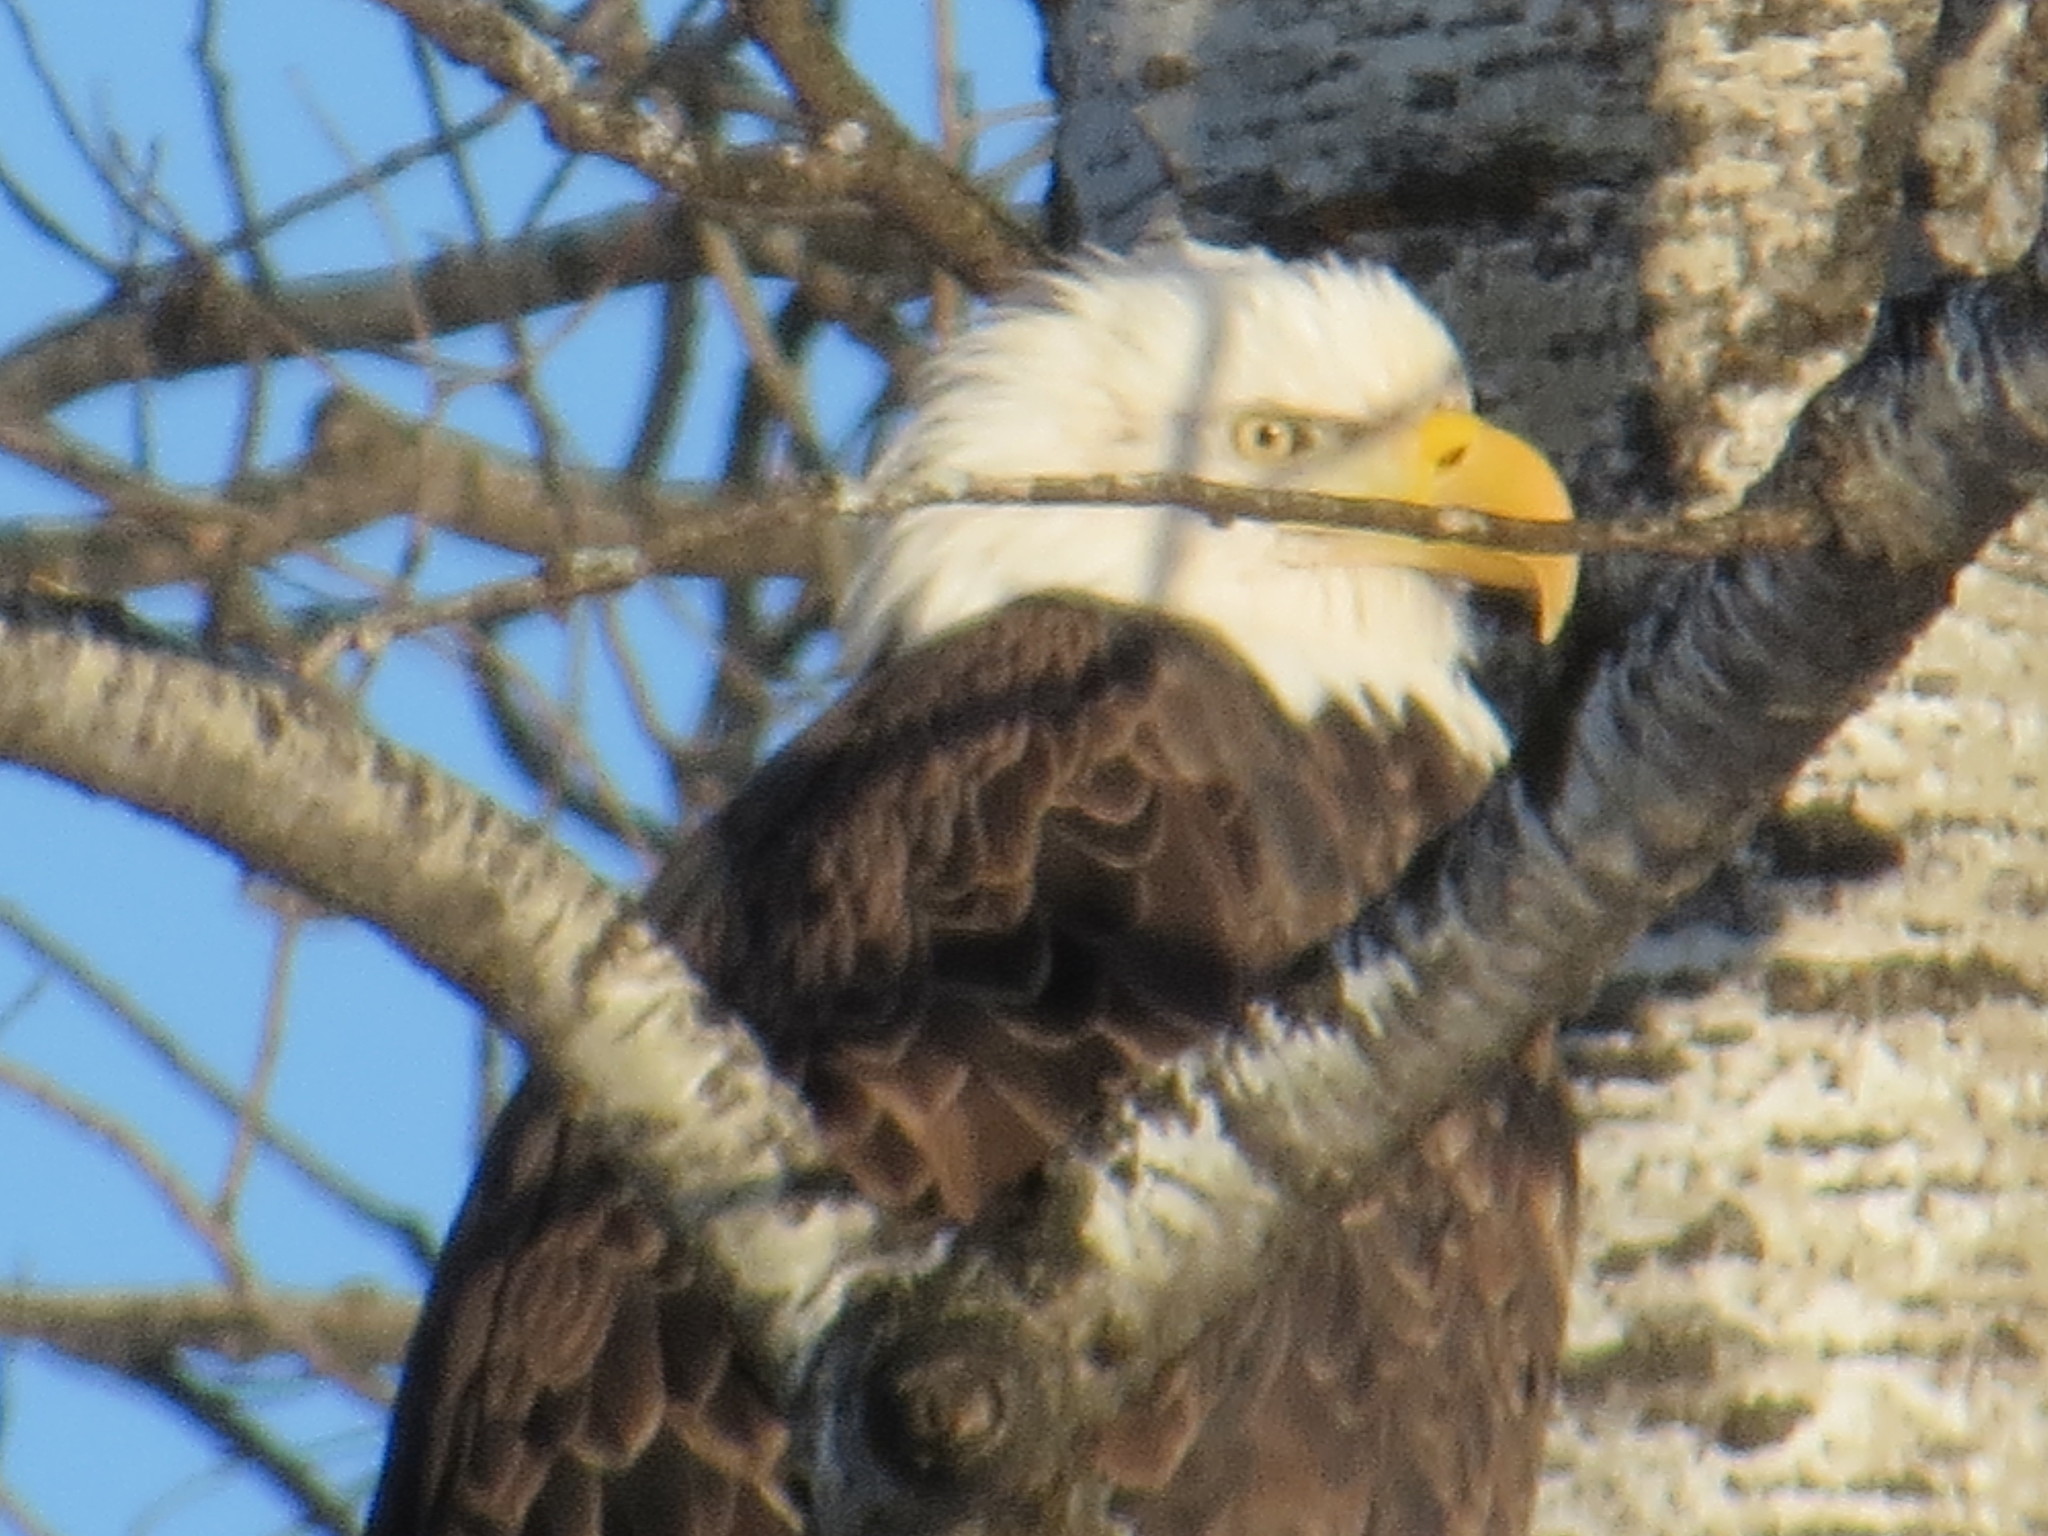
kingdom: Animalia
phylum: Chordata
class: Aves
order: Accipitriformes
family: Accipitridae
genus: Haliaeetus
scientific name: Haliaeetus leucocephalus
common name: Bald eagle
